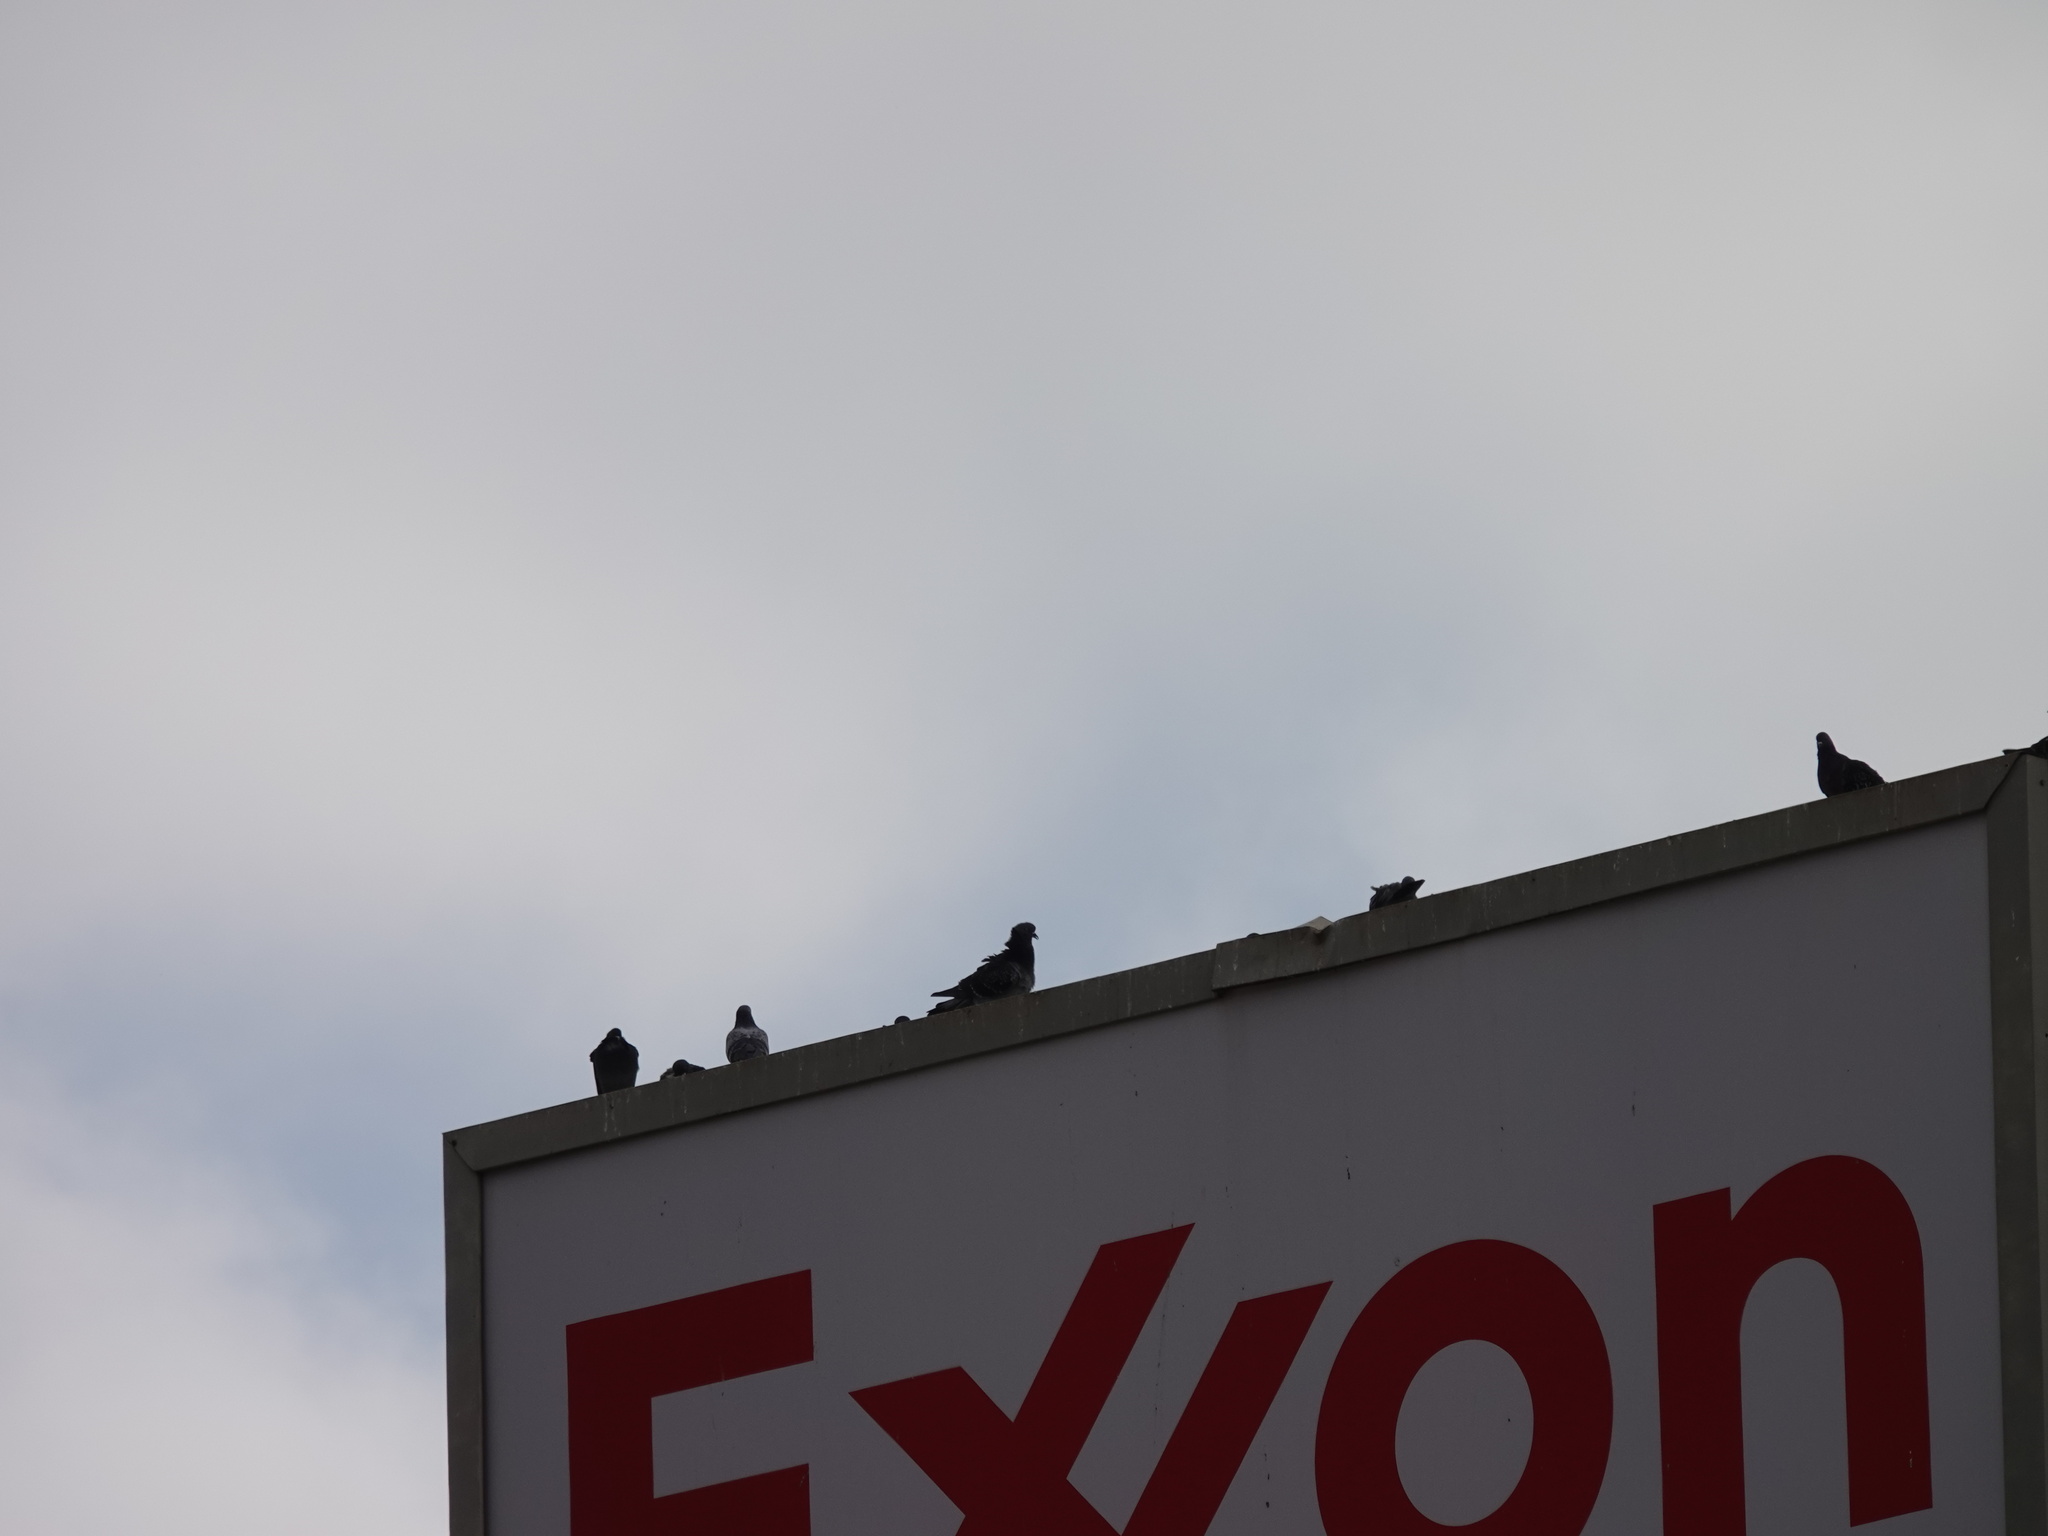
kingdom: Animalia
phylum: Chordata
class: Aves
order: Columbiformes
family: Columbidae
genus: Columba
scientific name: Columba livia
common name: Rock pigeon
